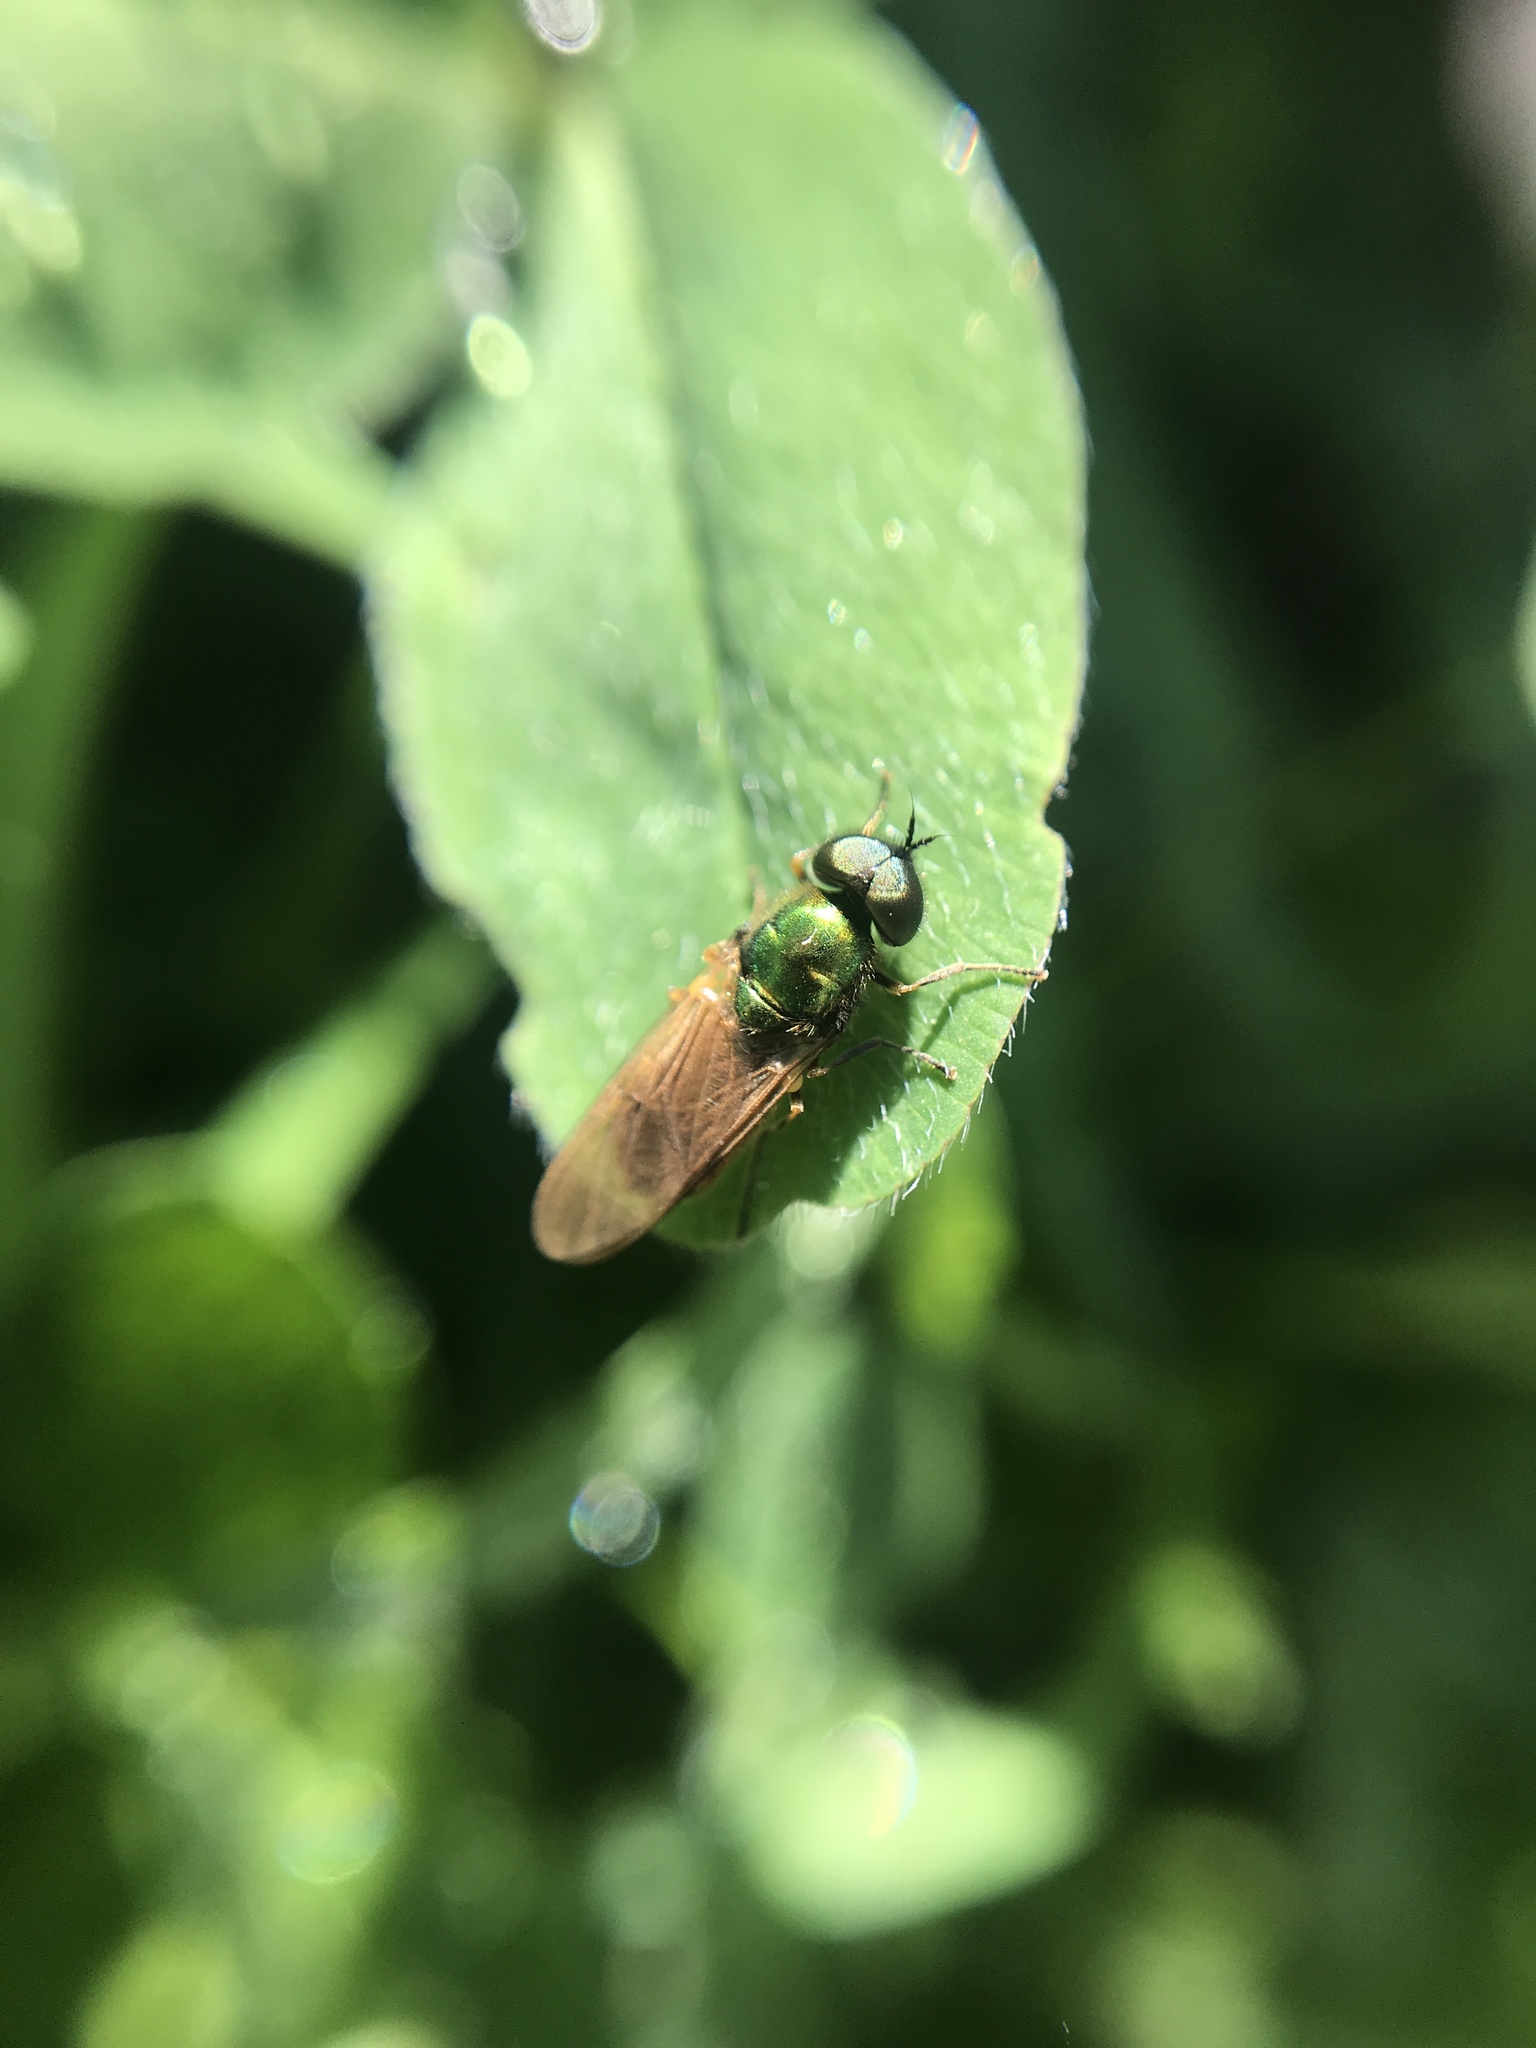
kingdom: Animalia
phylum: Arthropoda
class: Insecta
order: Diptera
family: Stratiomyidae
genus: Chloromyia
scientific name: Chloromyia formosa
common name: Soldier fly
